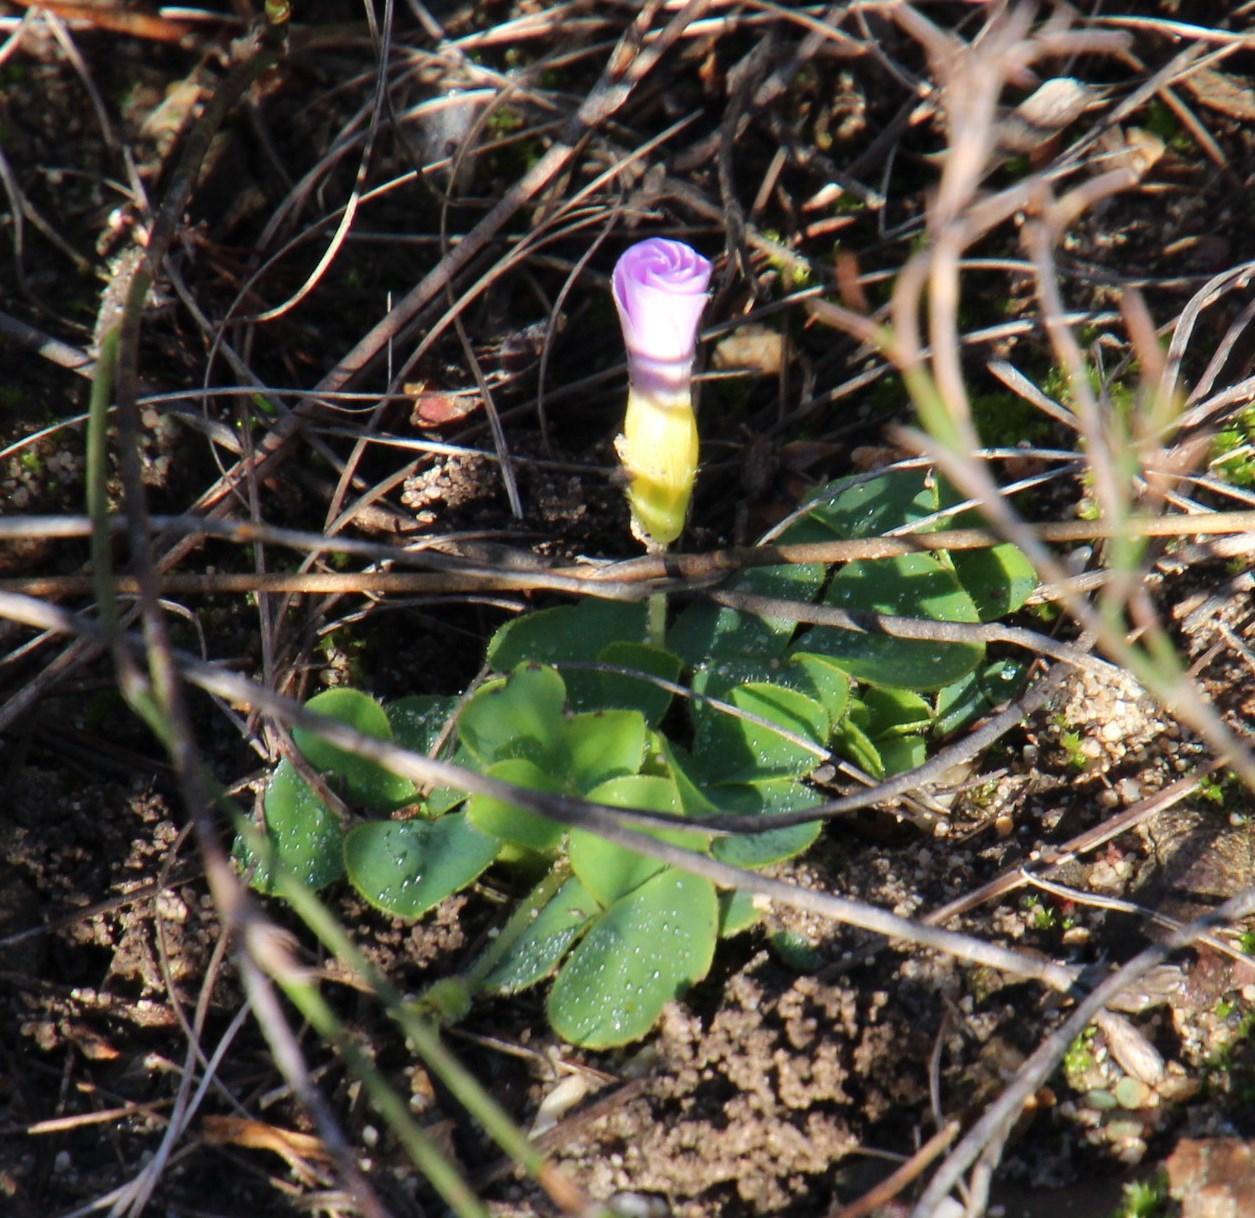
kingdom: Plantae
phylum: Tracheophyta
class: Magnoliopsida
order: Oxalidales
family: Oxalidaceae
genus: Oxalis
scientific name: Oxalis purpurea
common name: Purple woodsorrel
